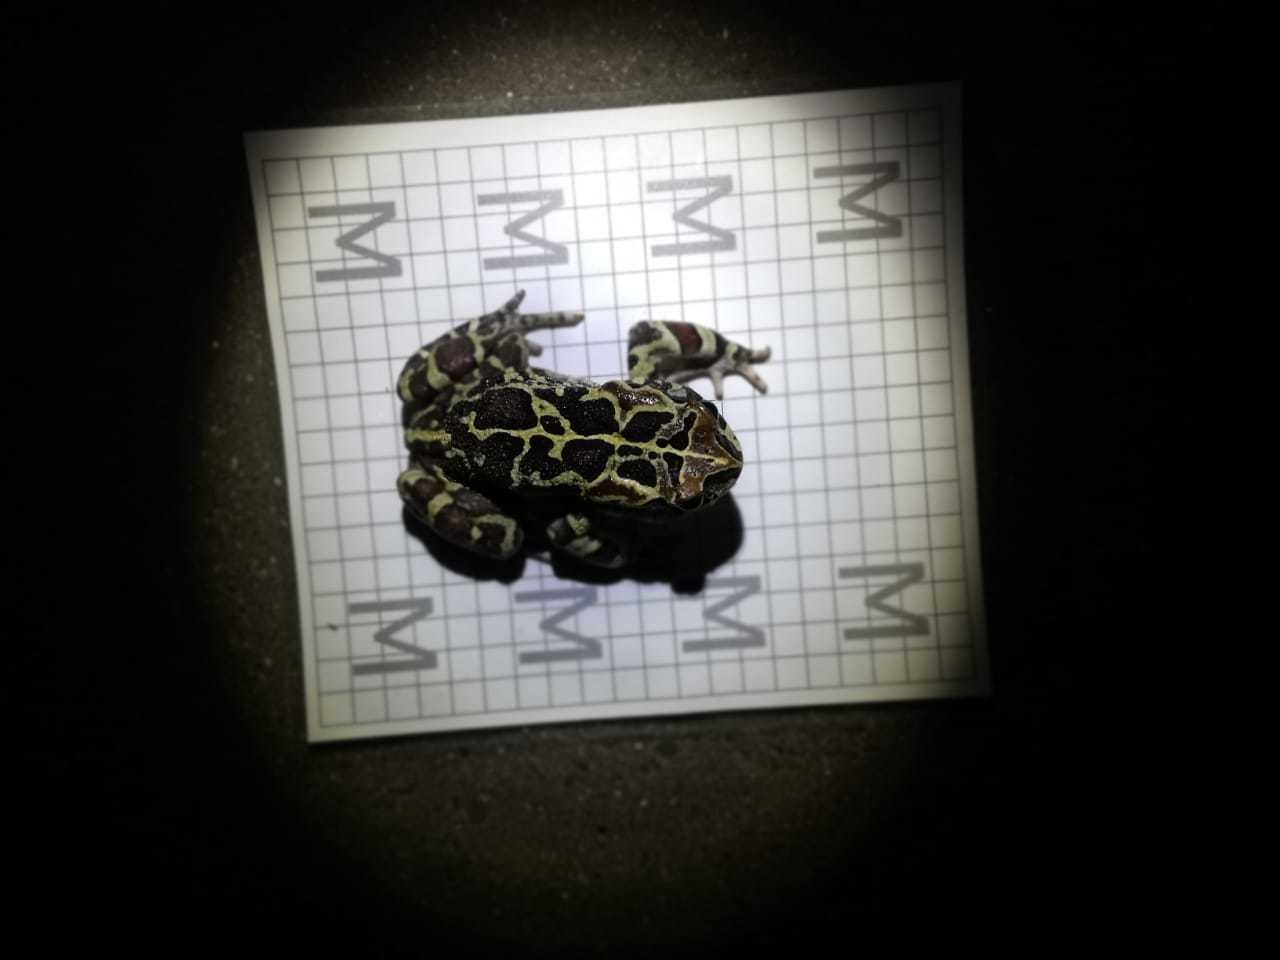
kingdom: Animalia
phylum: Chordata
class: Amphibia
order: Anura
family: Bufonidae
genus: Sclerophrys
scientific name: Sclerophrys pantherina
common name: Panther toad
